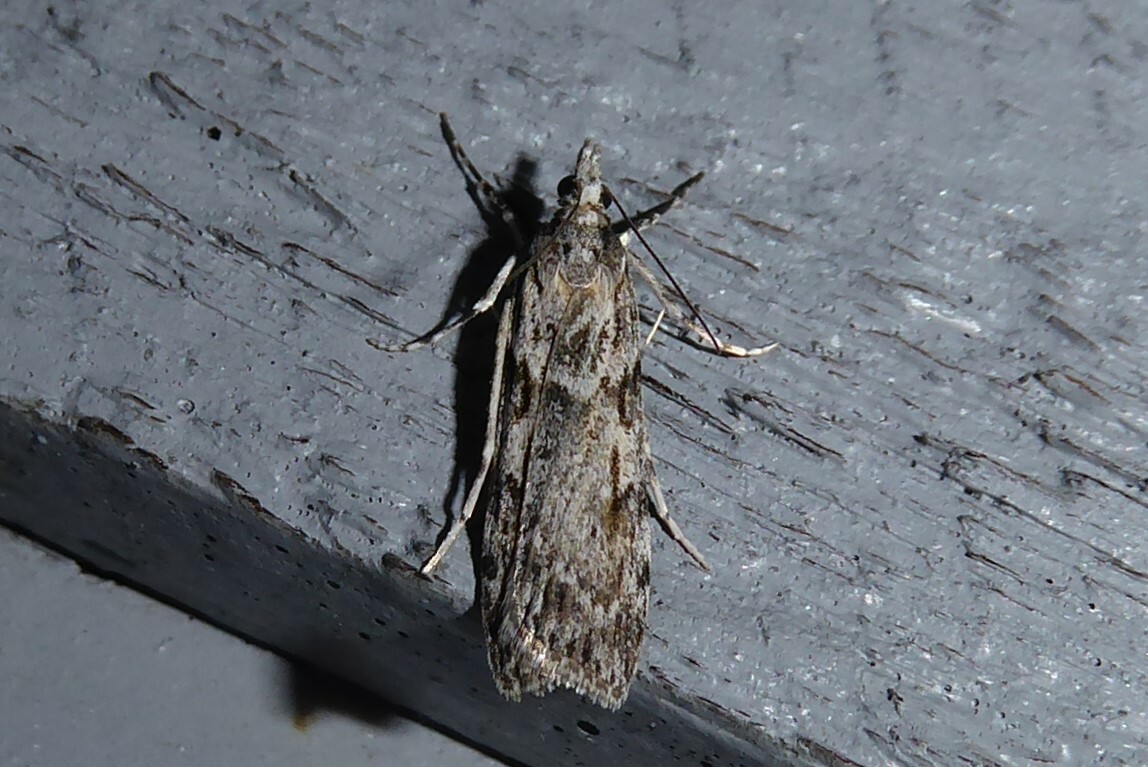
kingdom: Animalia
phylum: Arthropoda
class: Insecta
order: Lepidoptera
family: Crambidae
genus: Scoparia
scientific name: Scoparia halopis
